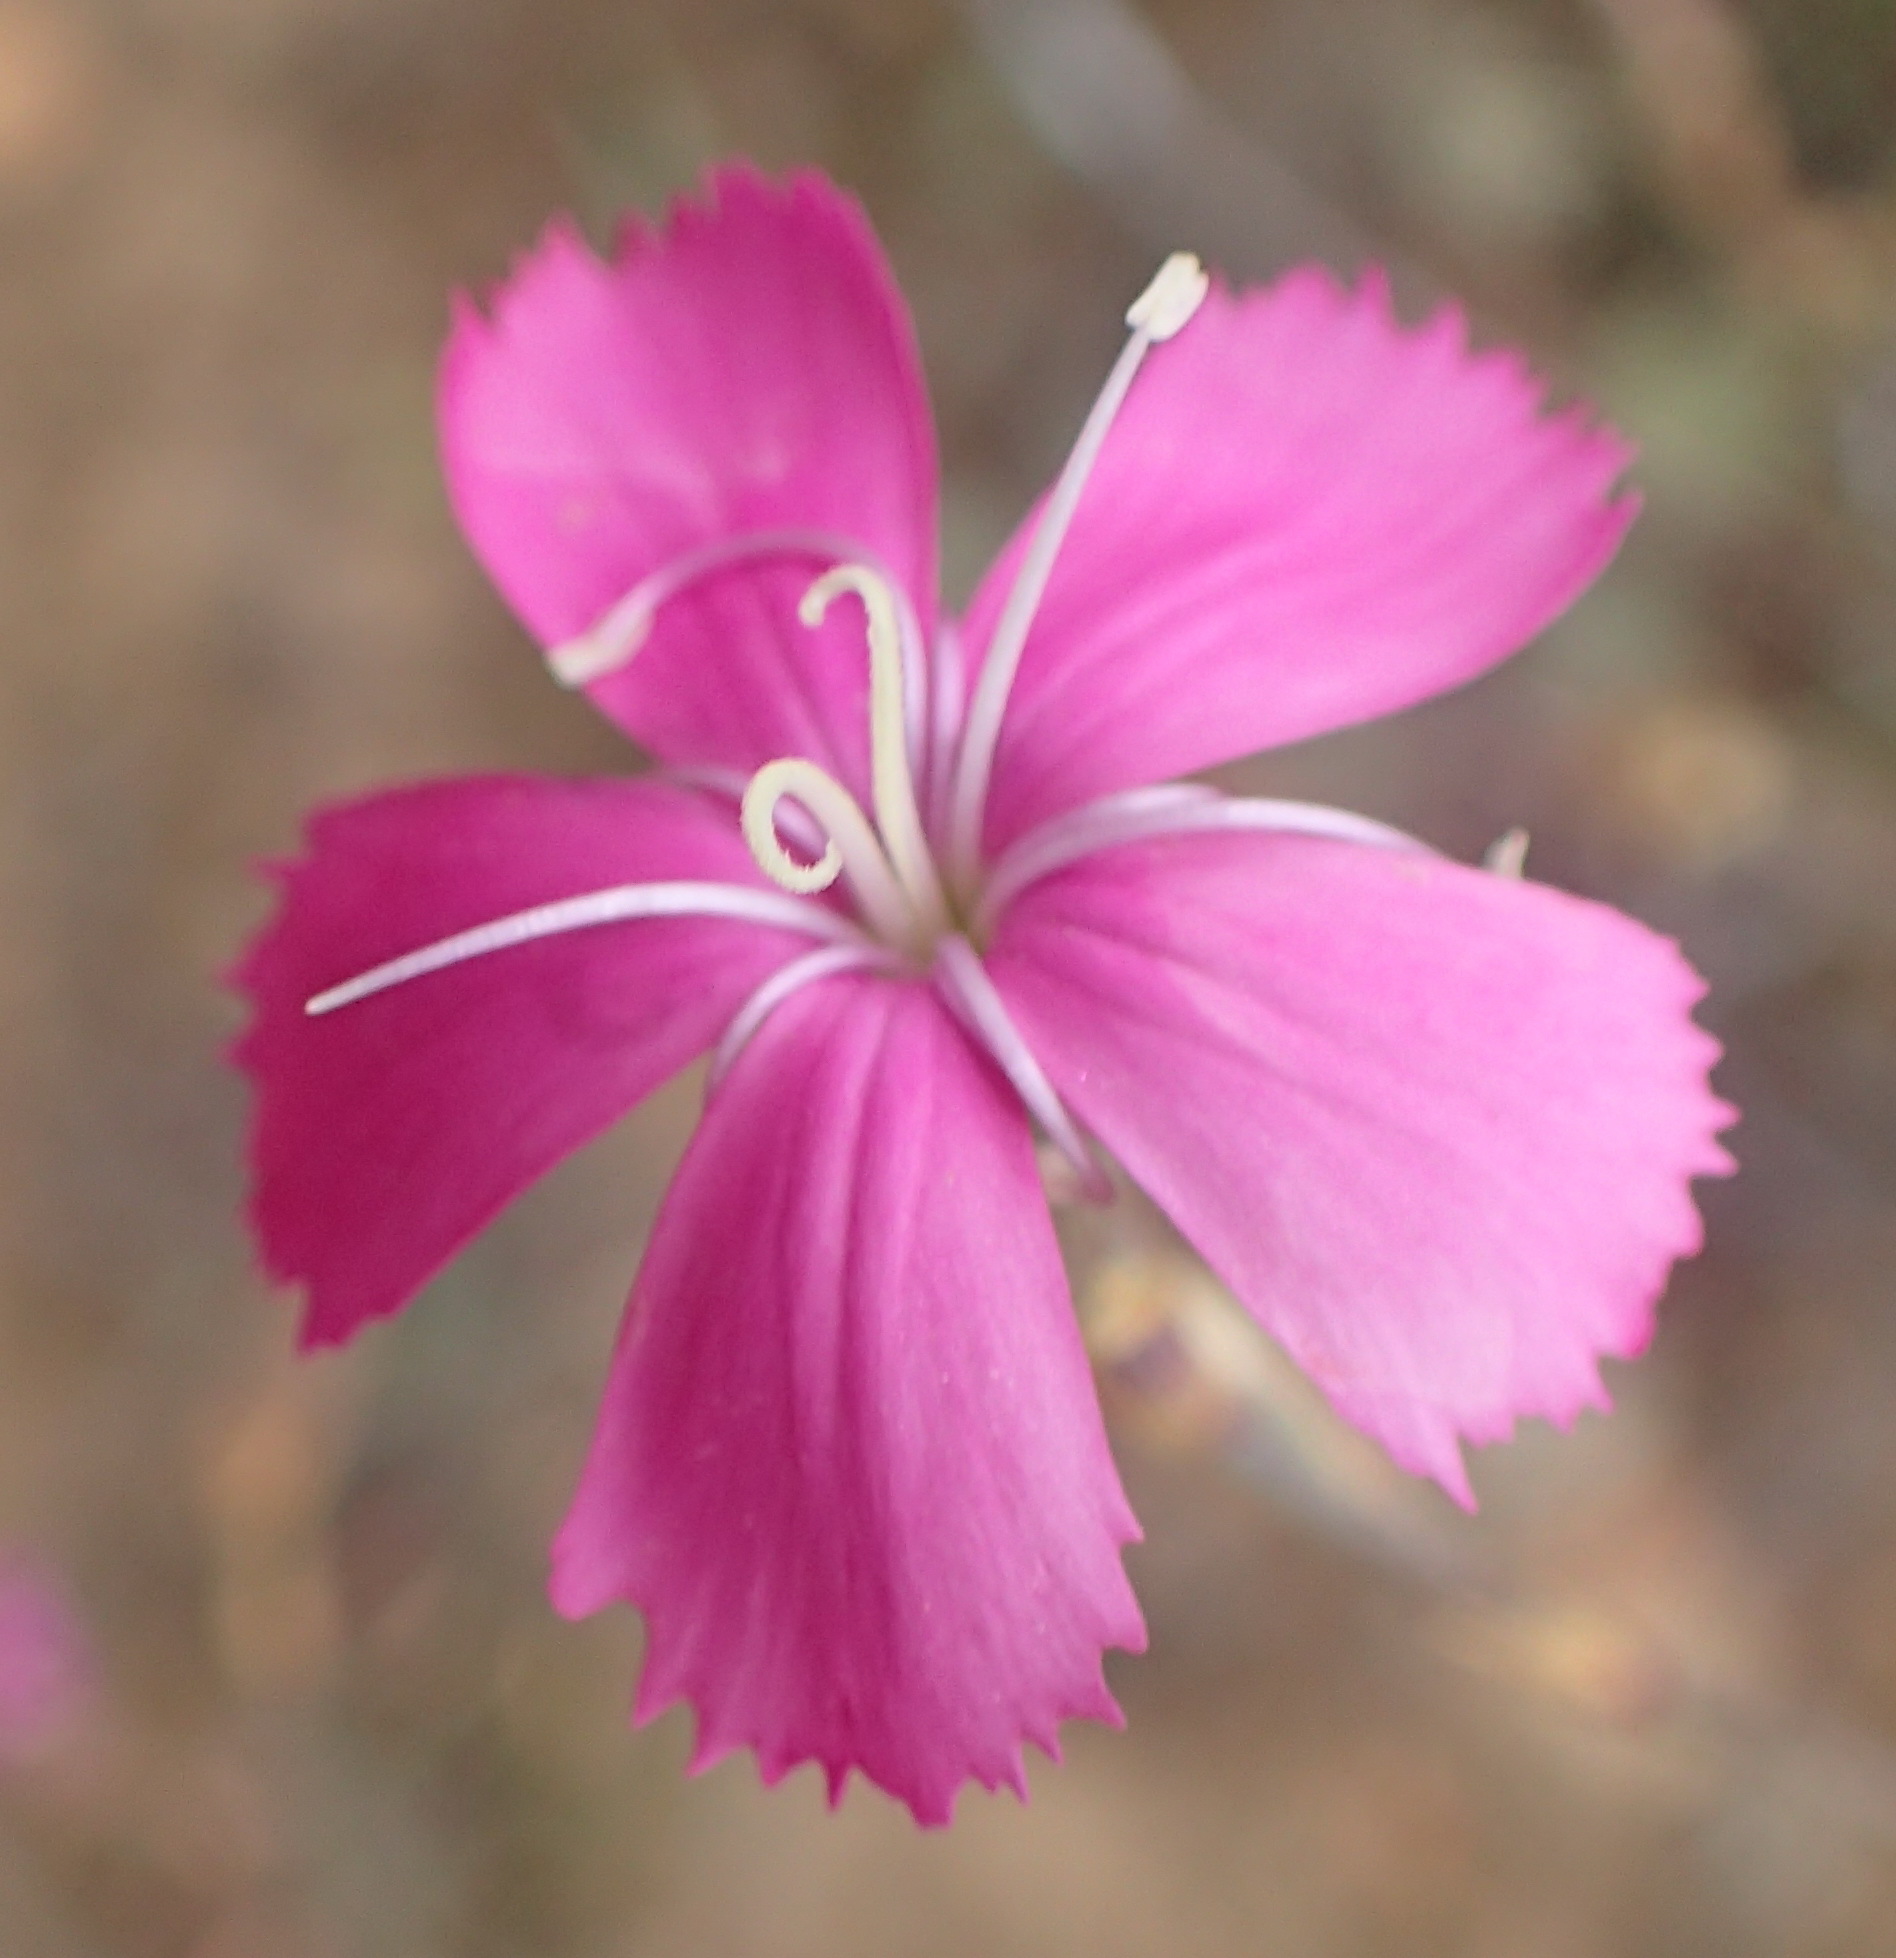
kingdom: Plantae
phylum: Tracheophyta
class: Magnoliopsida
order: Caryophyllales
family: Caryophyllaceae
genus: Dianthus
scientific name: Dianthus basuticus
